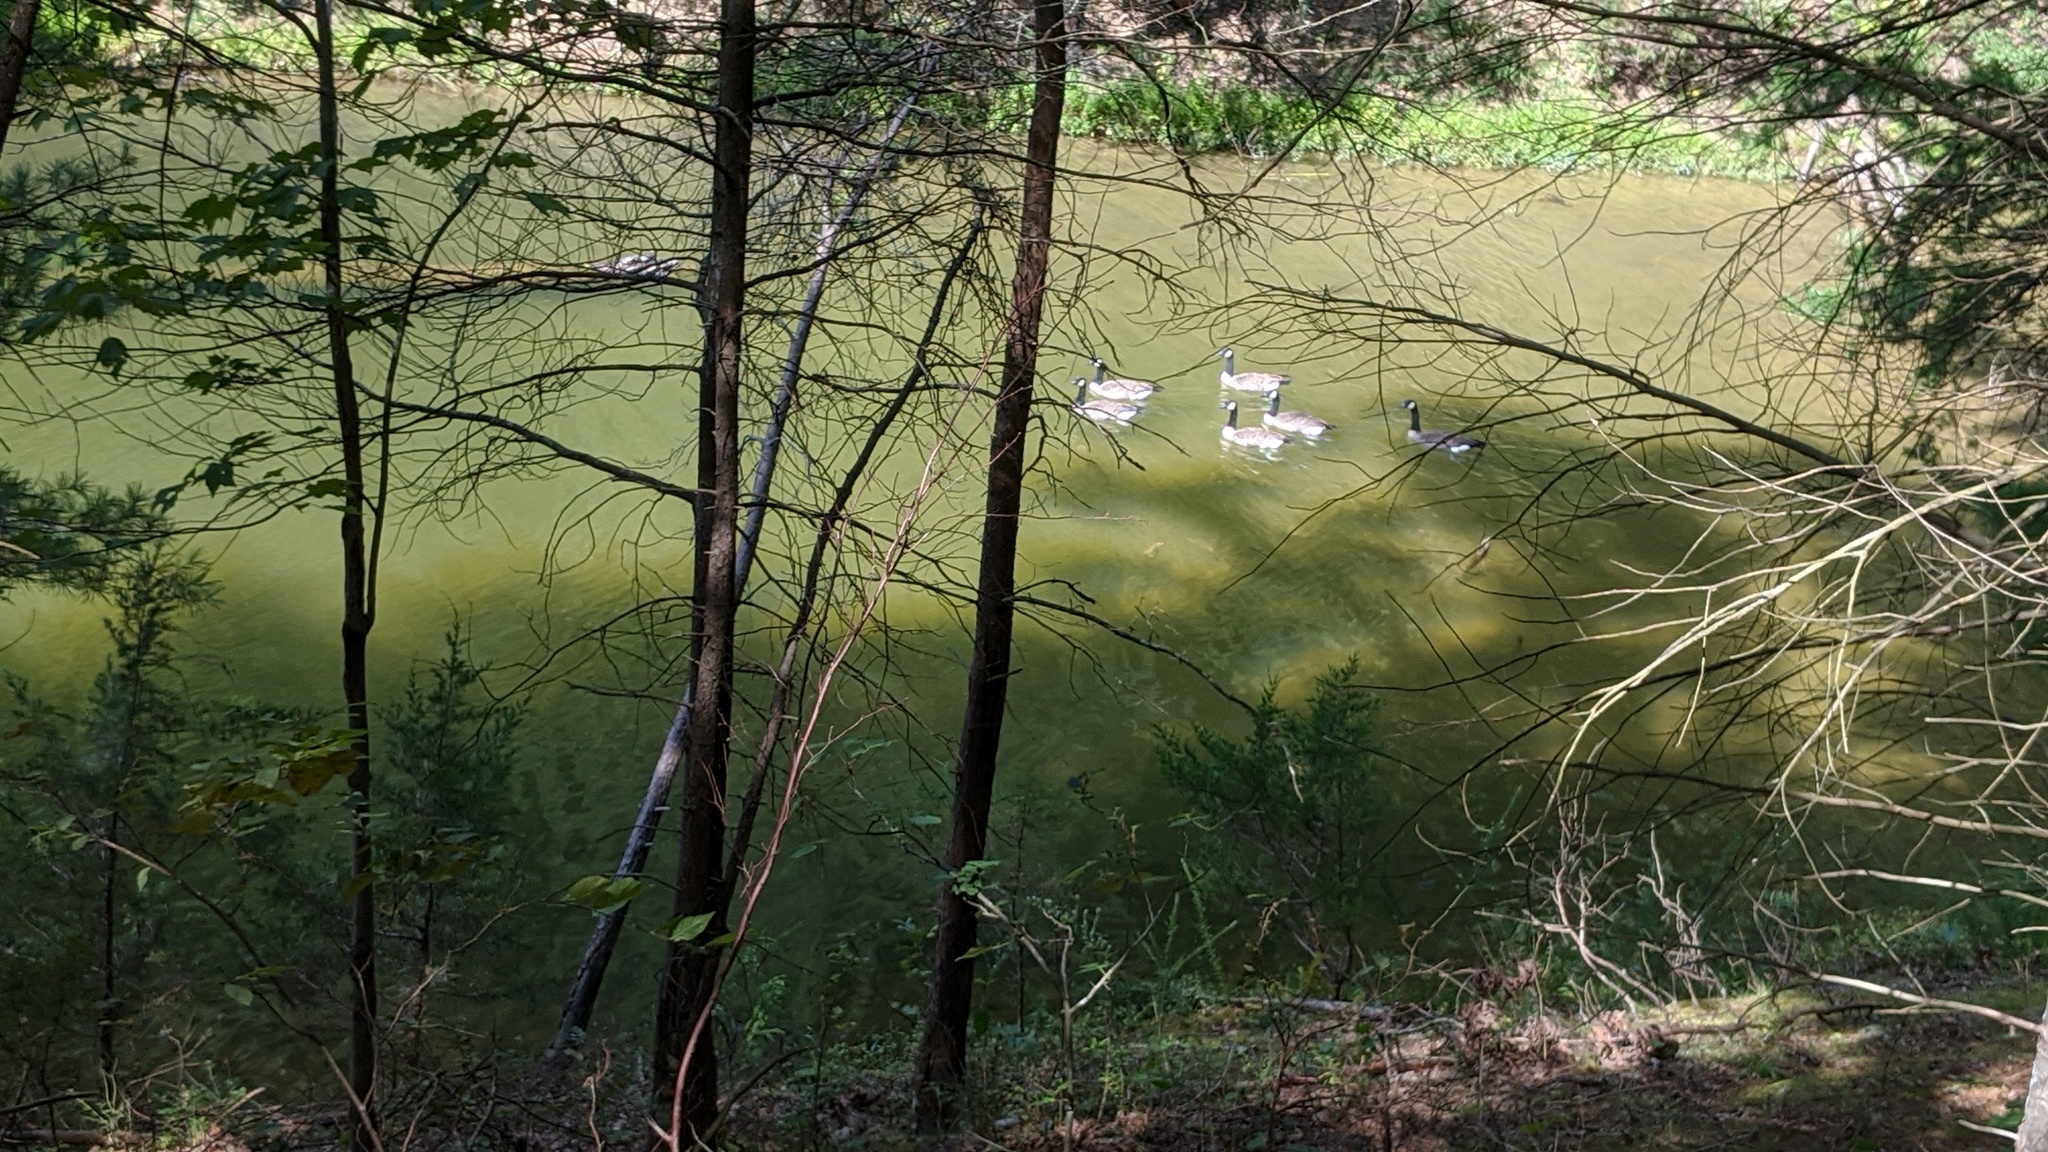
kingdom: Animalia
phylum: Chordata
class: Aves
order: Anseriformes
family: Anatidae
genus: Branta
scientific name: Branta canadensis
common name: Canada goose
